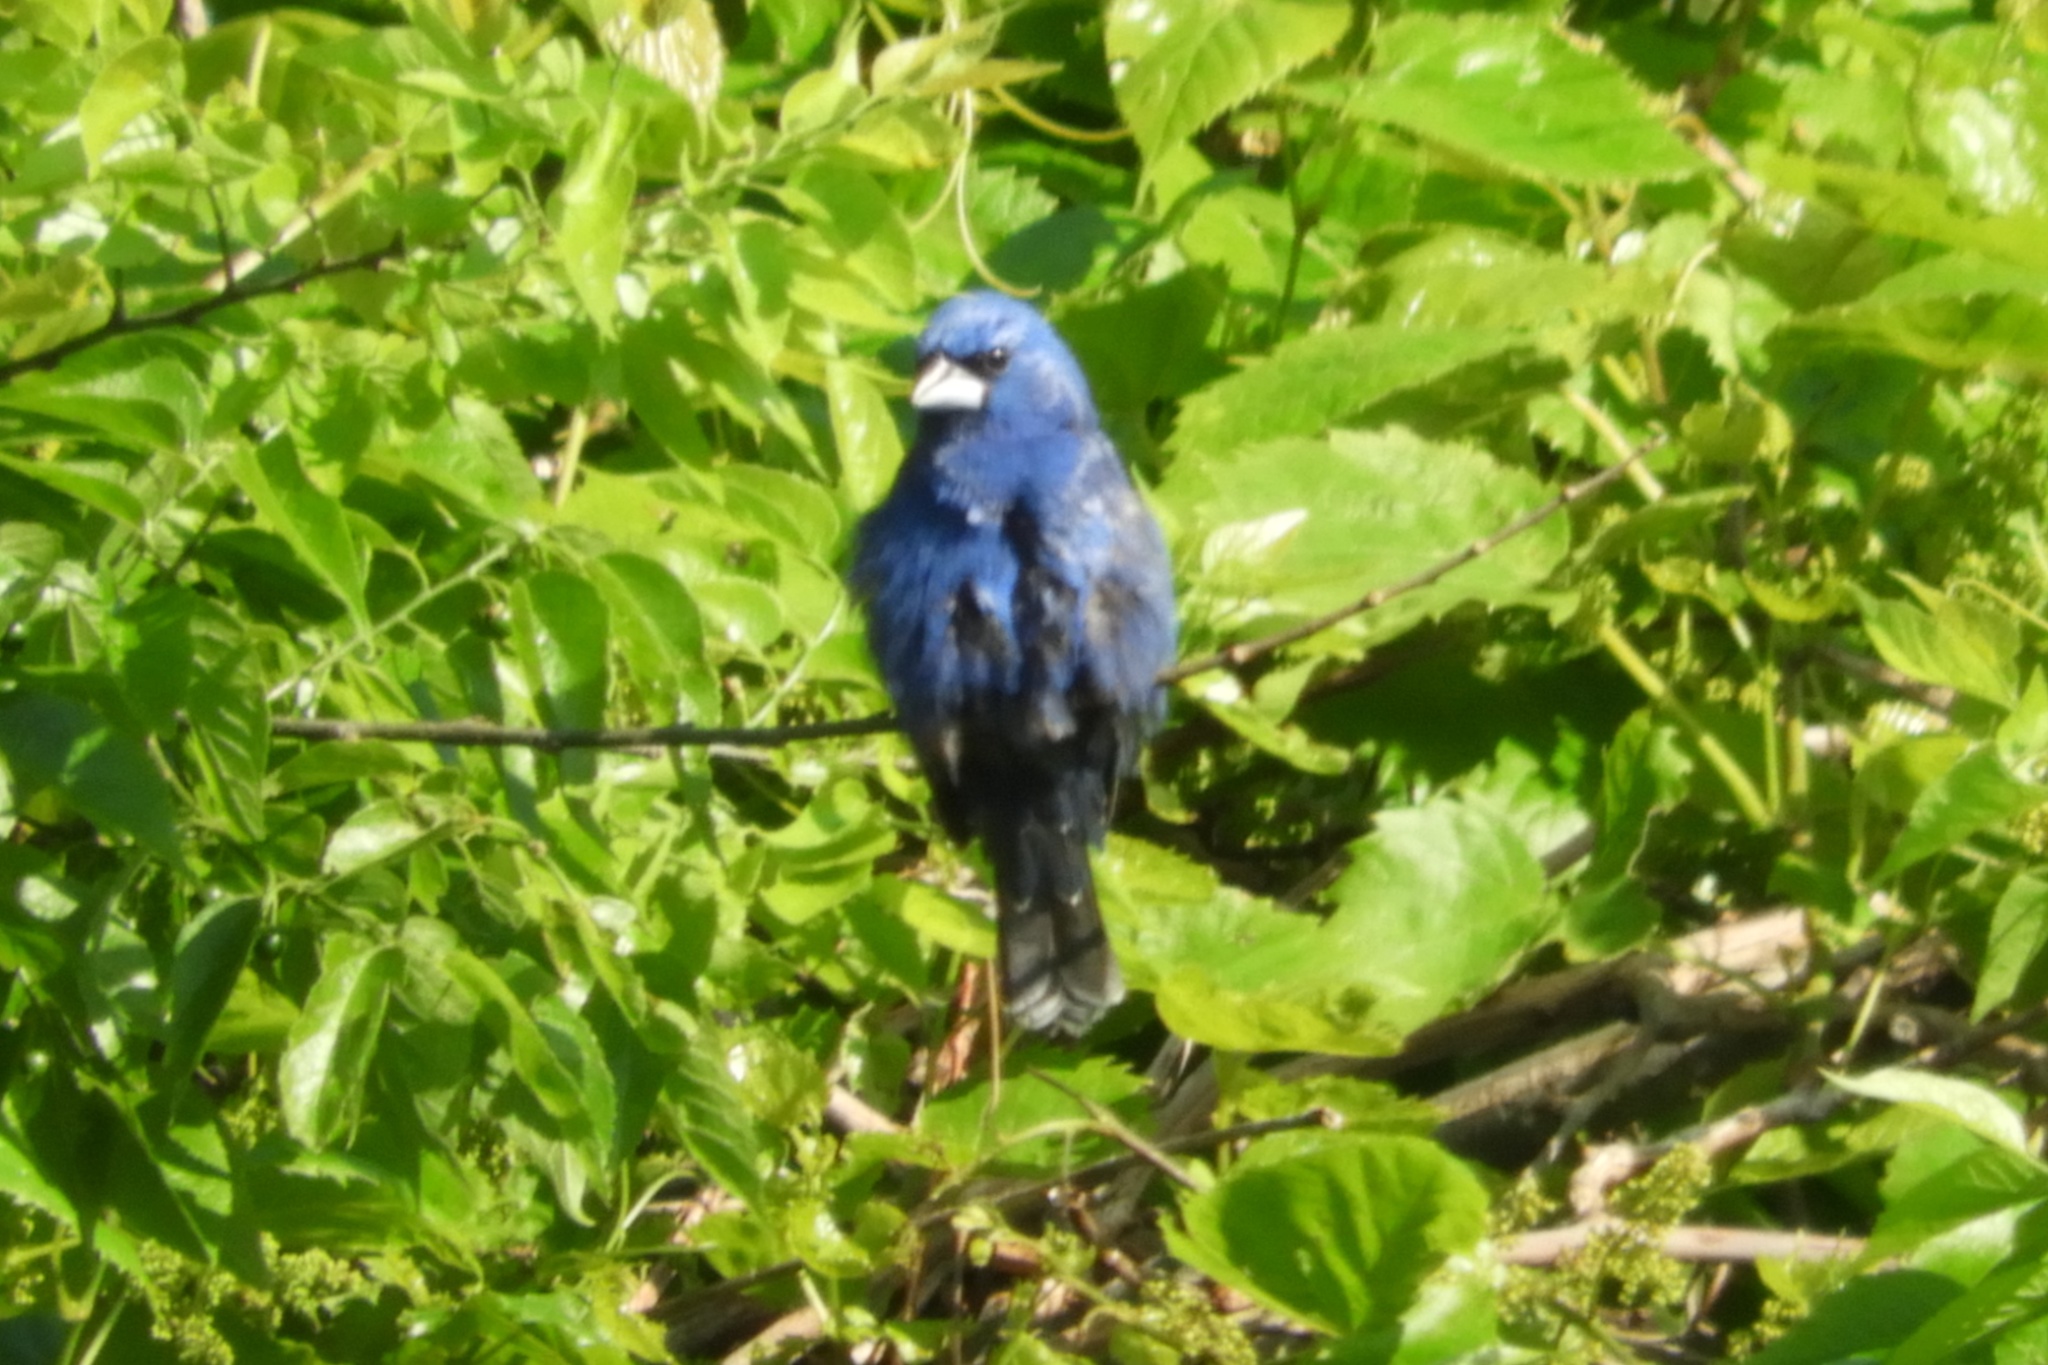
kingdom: Animalia
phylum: Chordata
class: Aves
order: Passeriformes
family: Cardinalidae
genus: Passerina
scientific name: Passerina cyanea
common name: Indigo bunting
